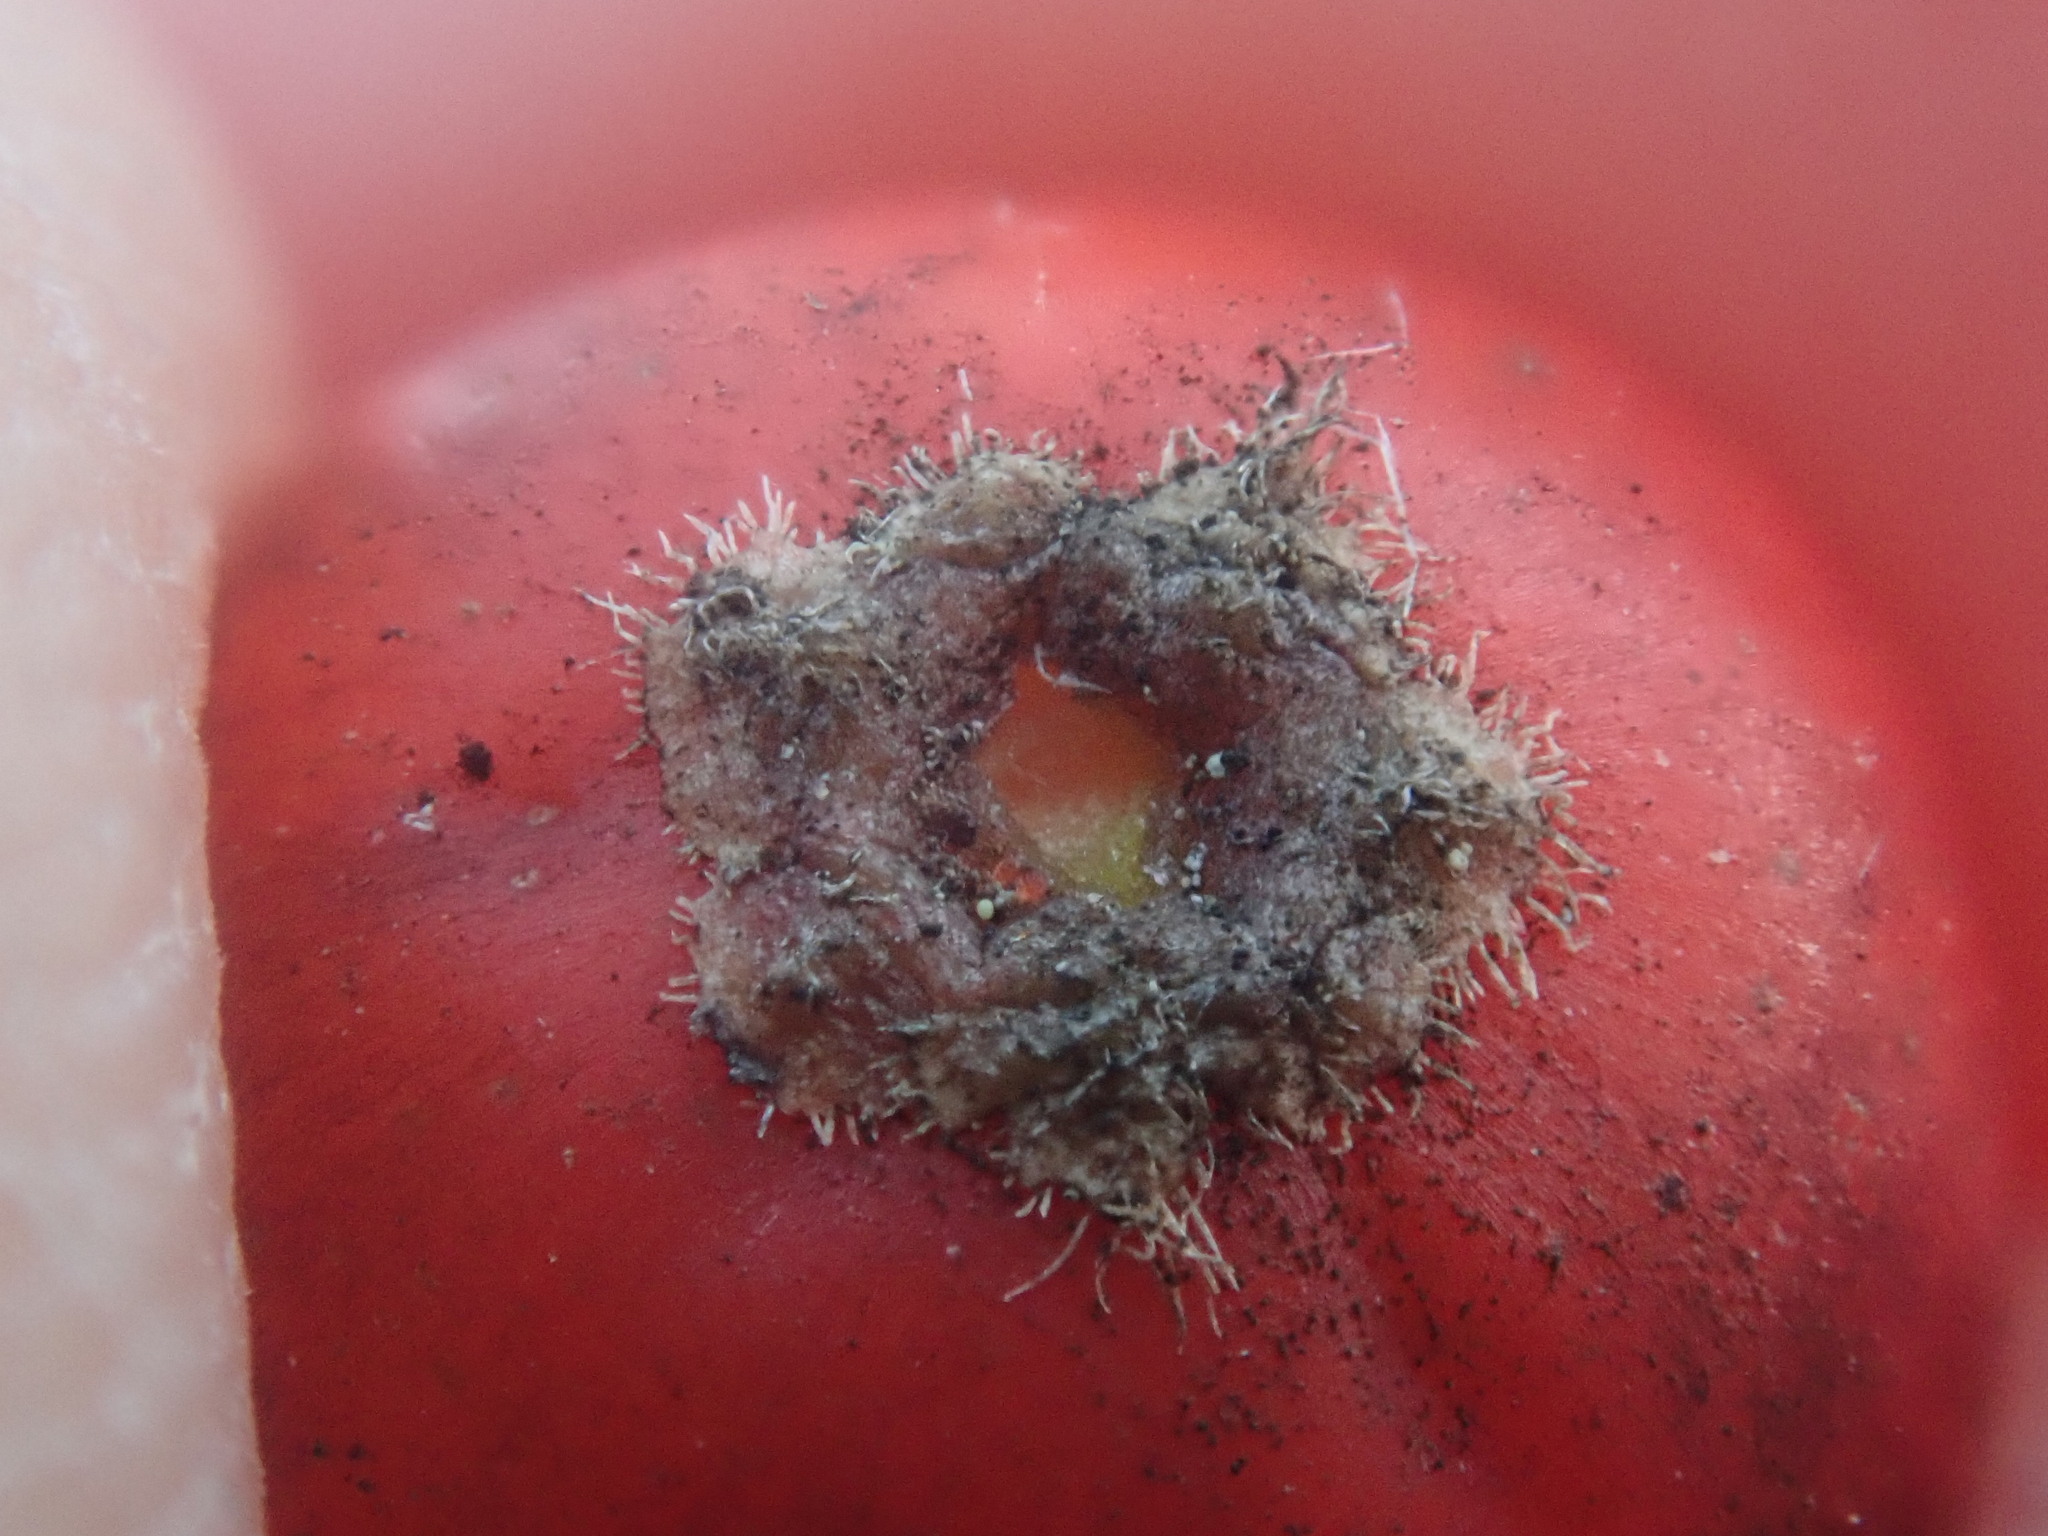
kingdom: Plantae
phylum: Tracheophyta
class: Magnoliopsida
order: Aquifoliales
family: Aquifoliaceae
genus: Ilex
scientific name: Ilex verticillata
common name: Virginia winterberry
